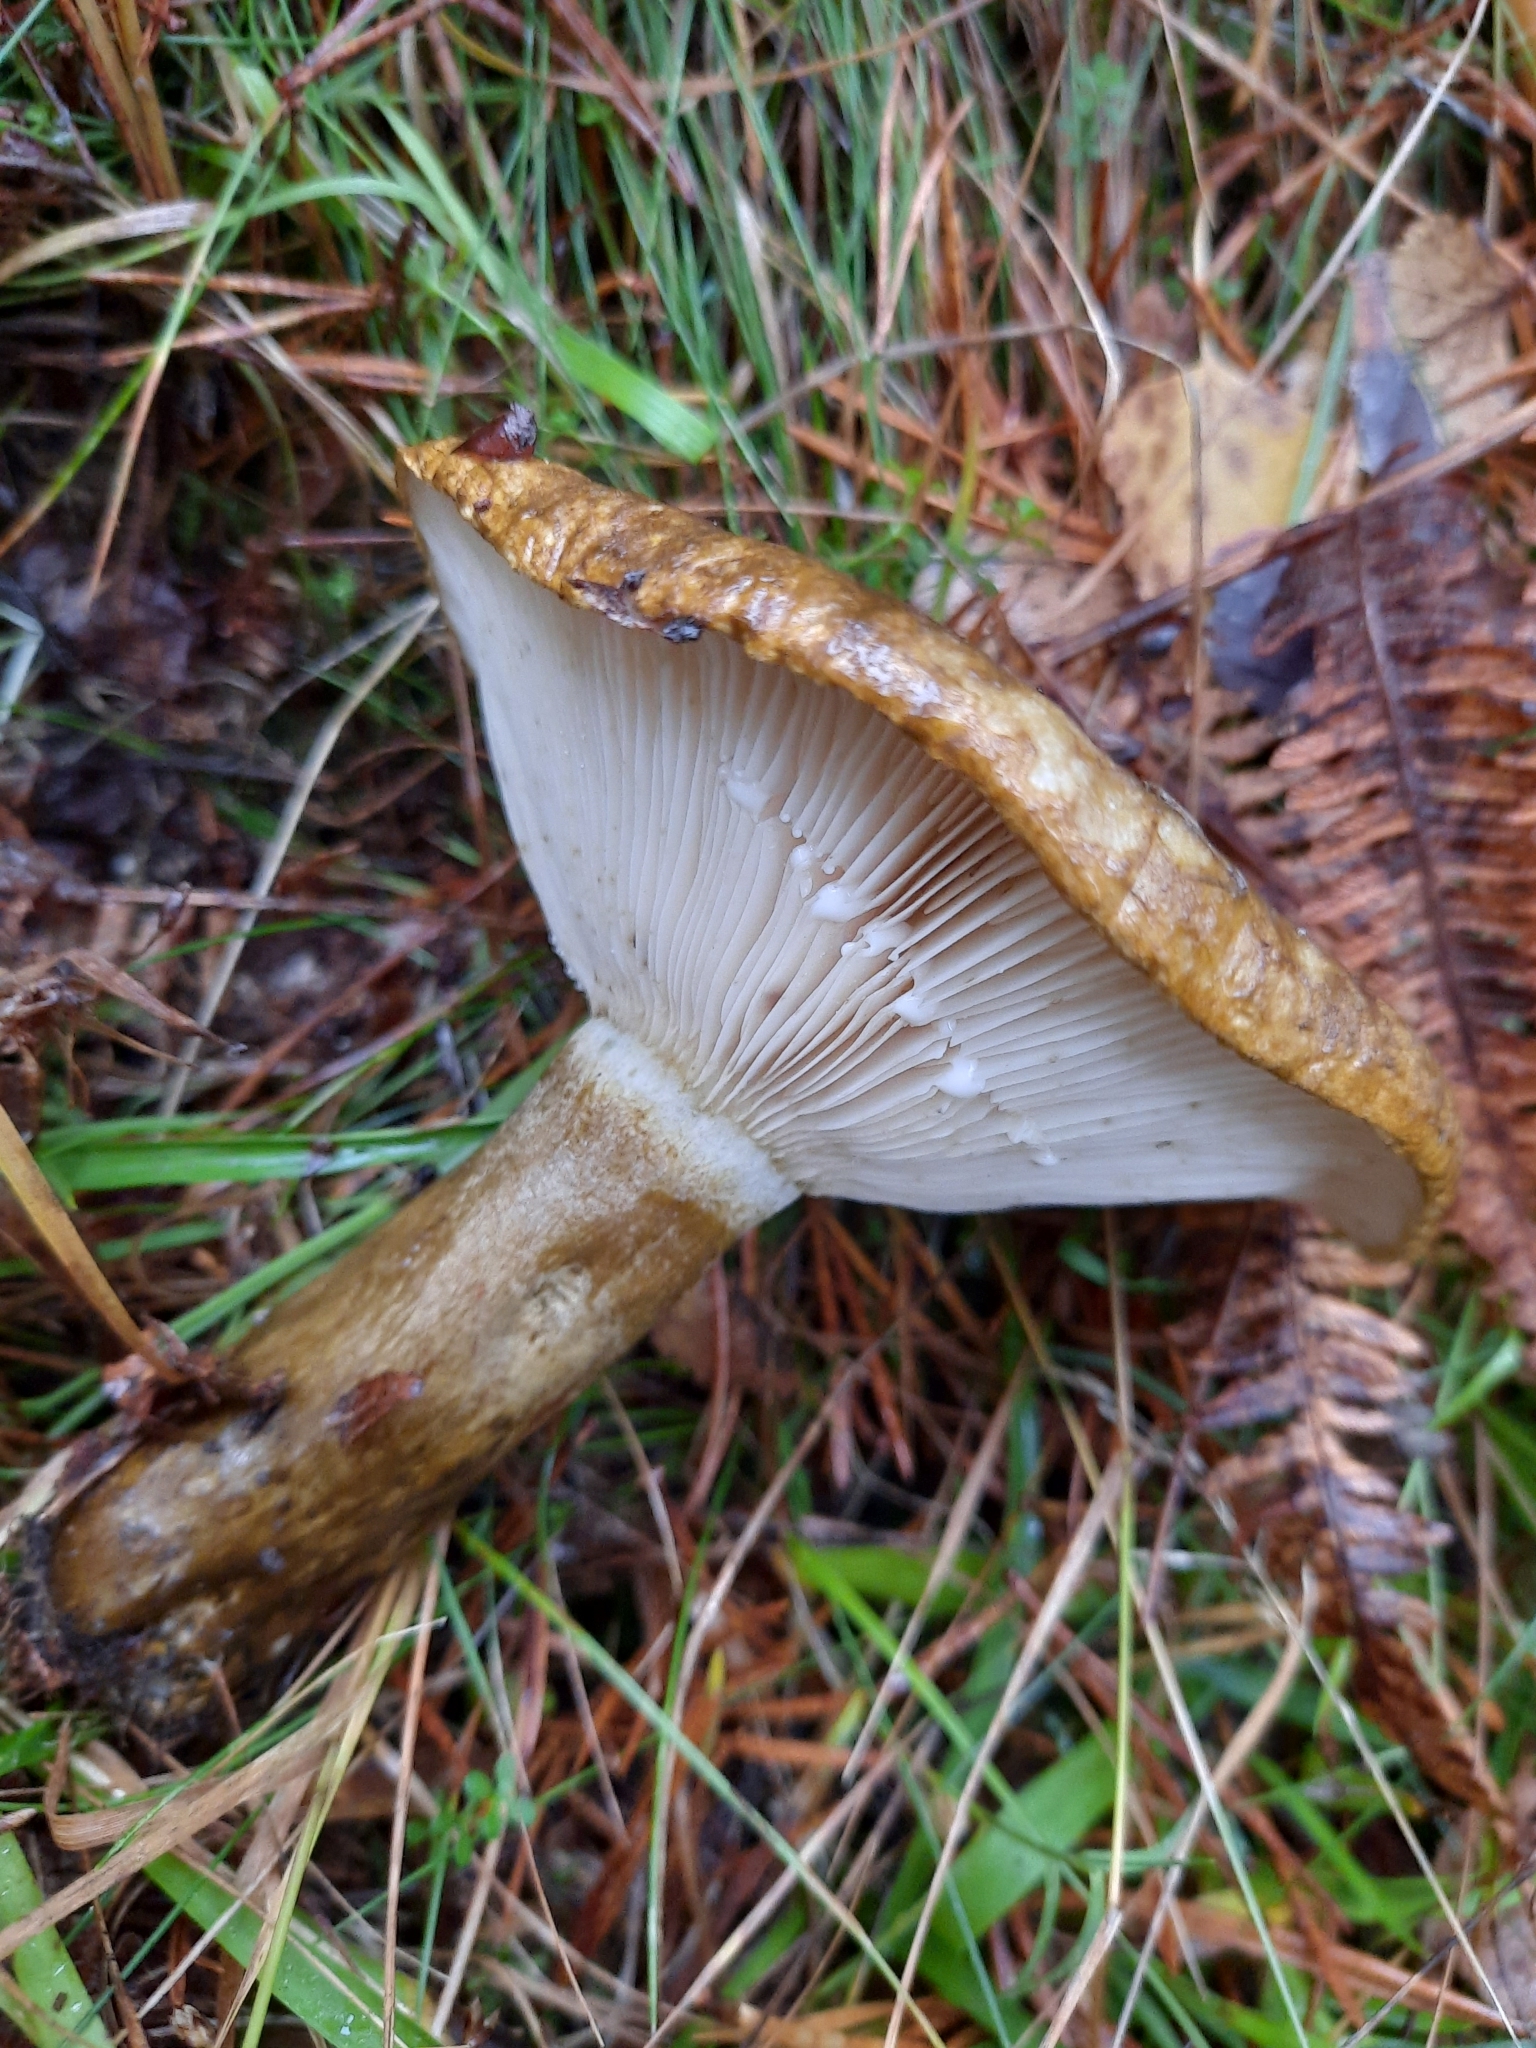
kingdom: Fungi
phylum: Basidiomycota
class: Agaricomycetes
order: Russulales
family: Russulaceae
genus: Lactarius
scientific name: Lactarius turpis
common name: Ugly milk-cap
